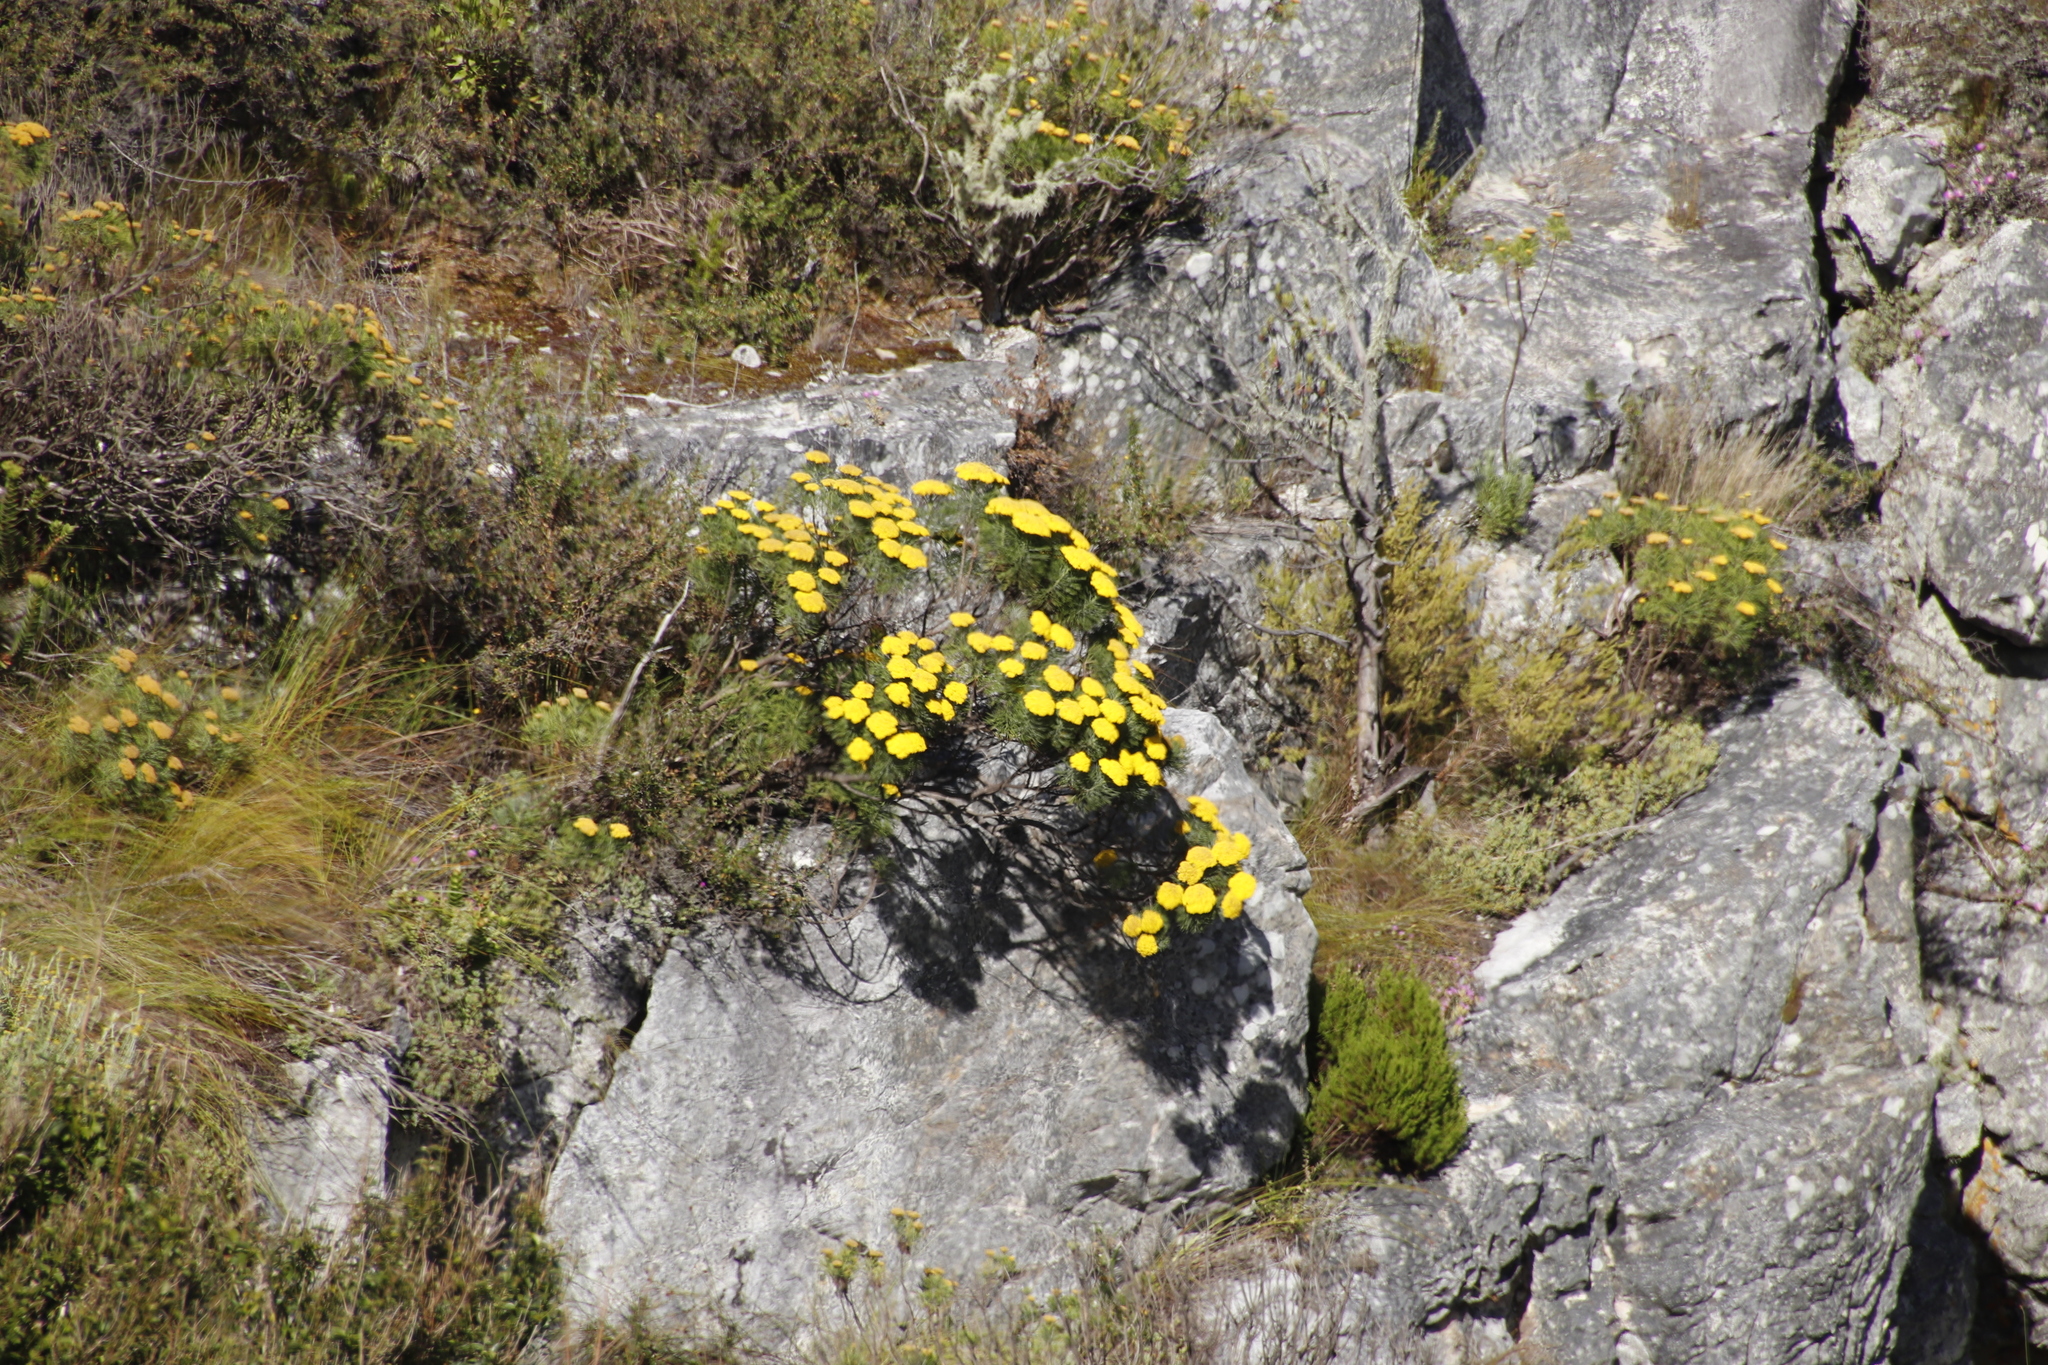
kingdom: Plantae
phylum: Tracheophyta
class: Magnoliopsida
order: Asterales
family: Asteraceae
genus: Hymenolepis
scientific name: Hymenolepis crithmifolia
